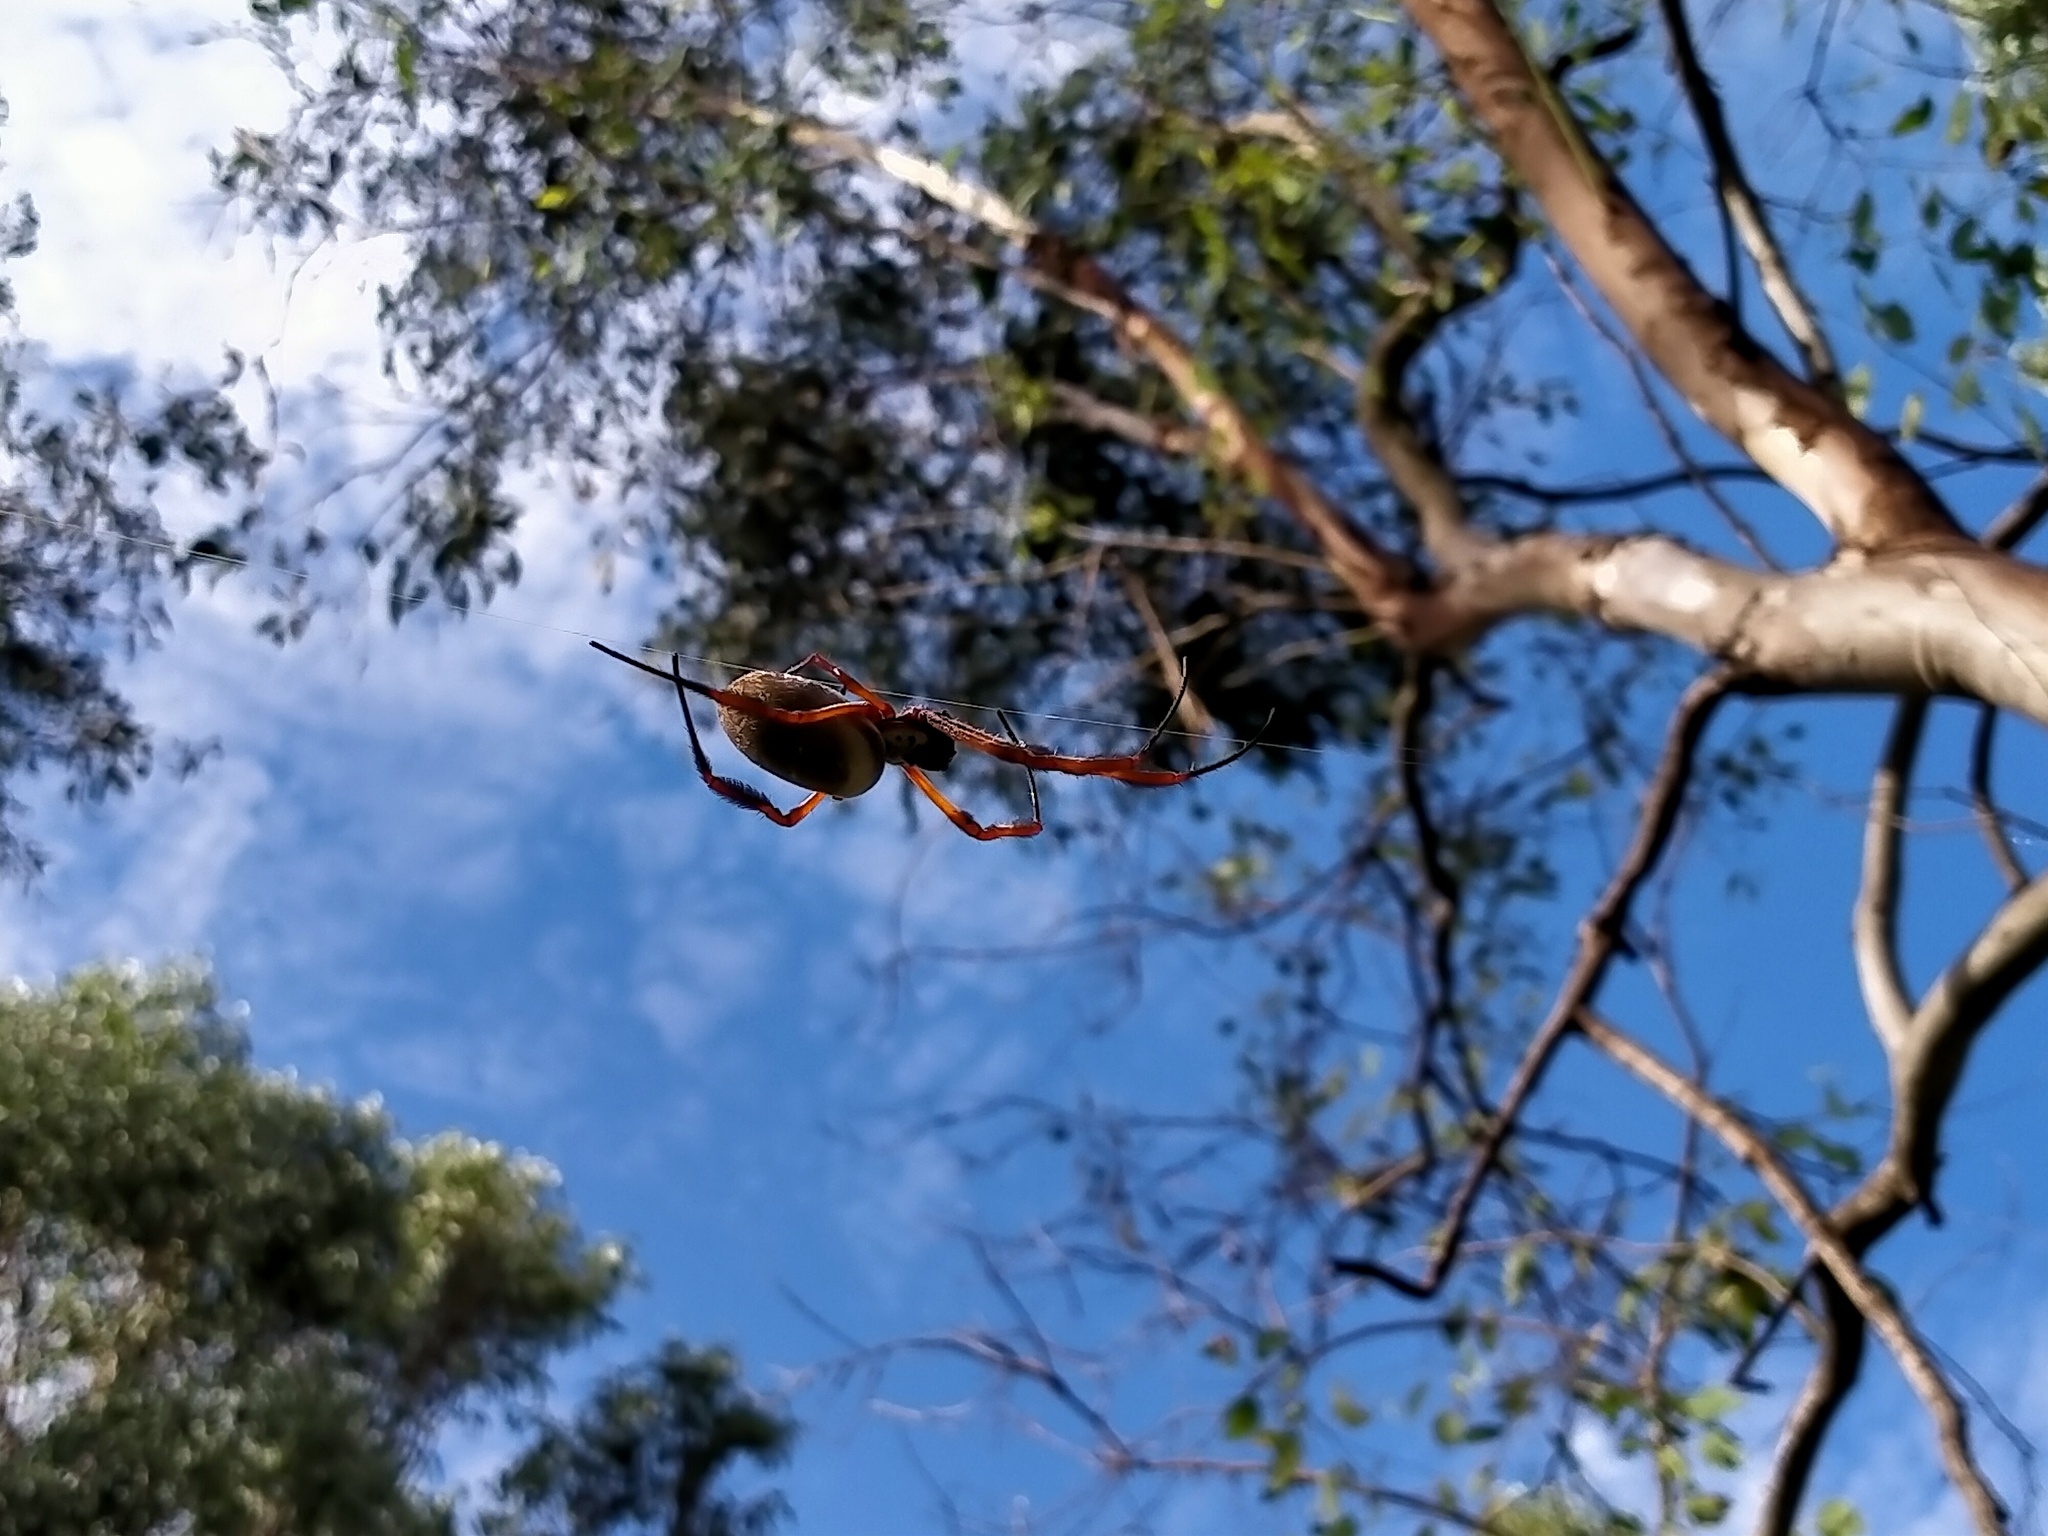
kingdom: Animalia
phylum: Arthropoda
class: Arachnida
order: Araneae
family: Araneidae
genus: Trichonephila
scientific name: Trichonephila edulis
